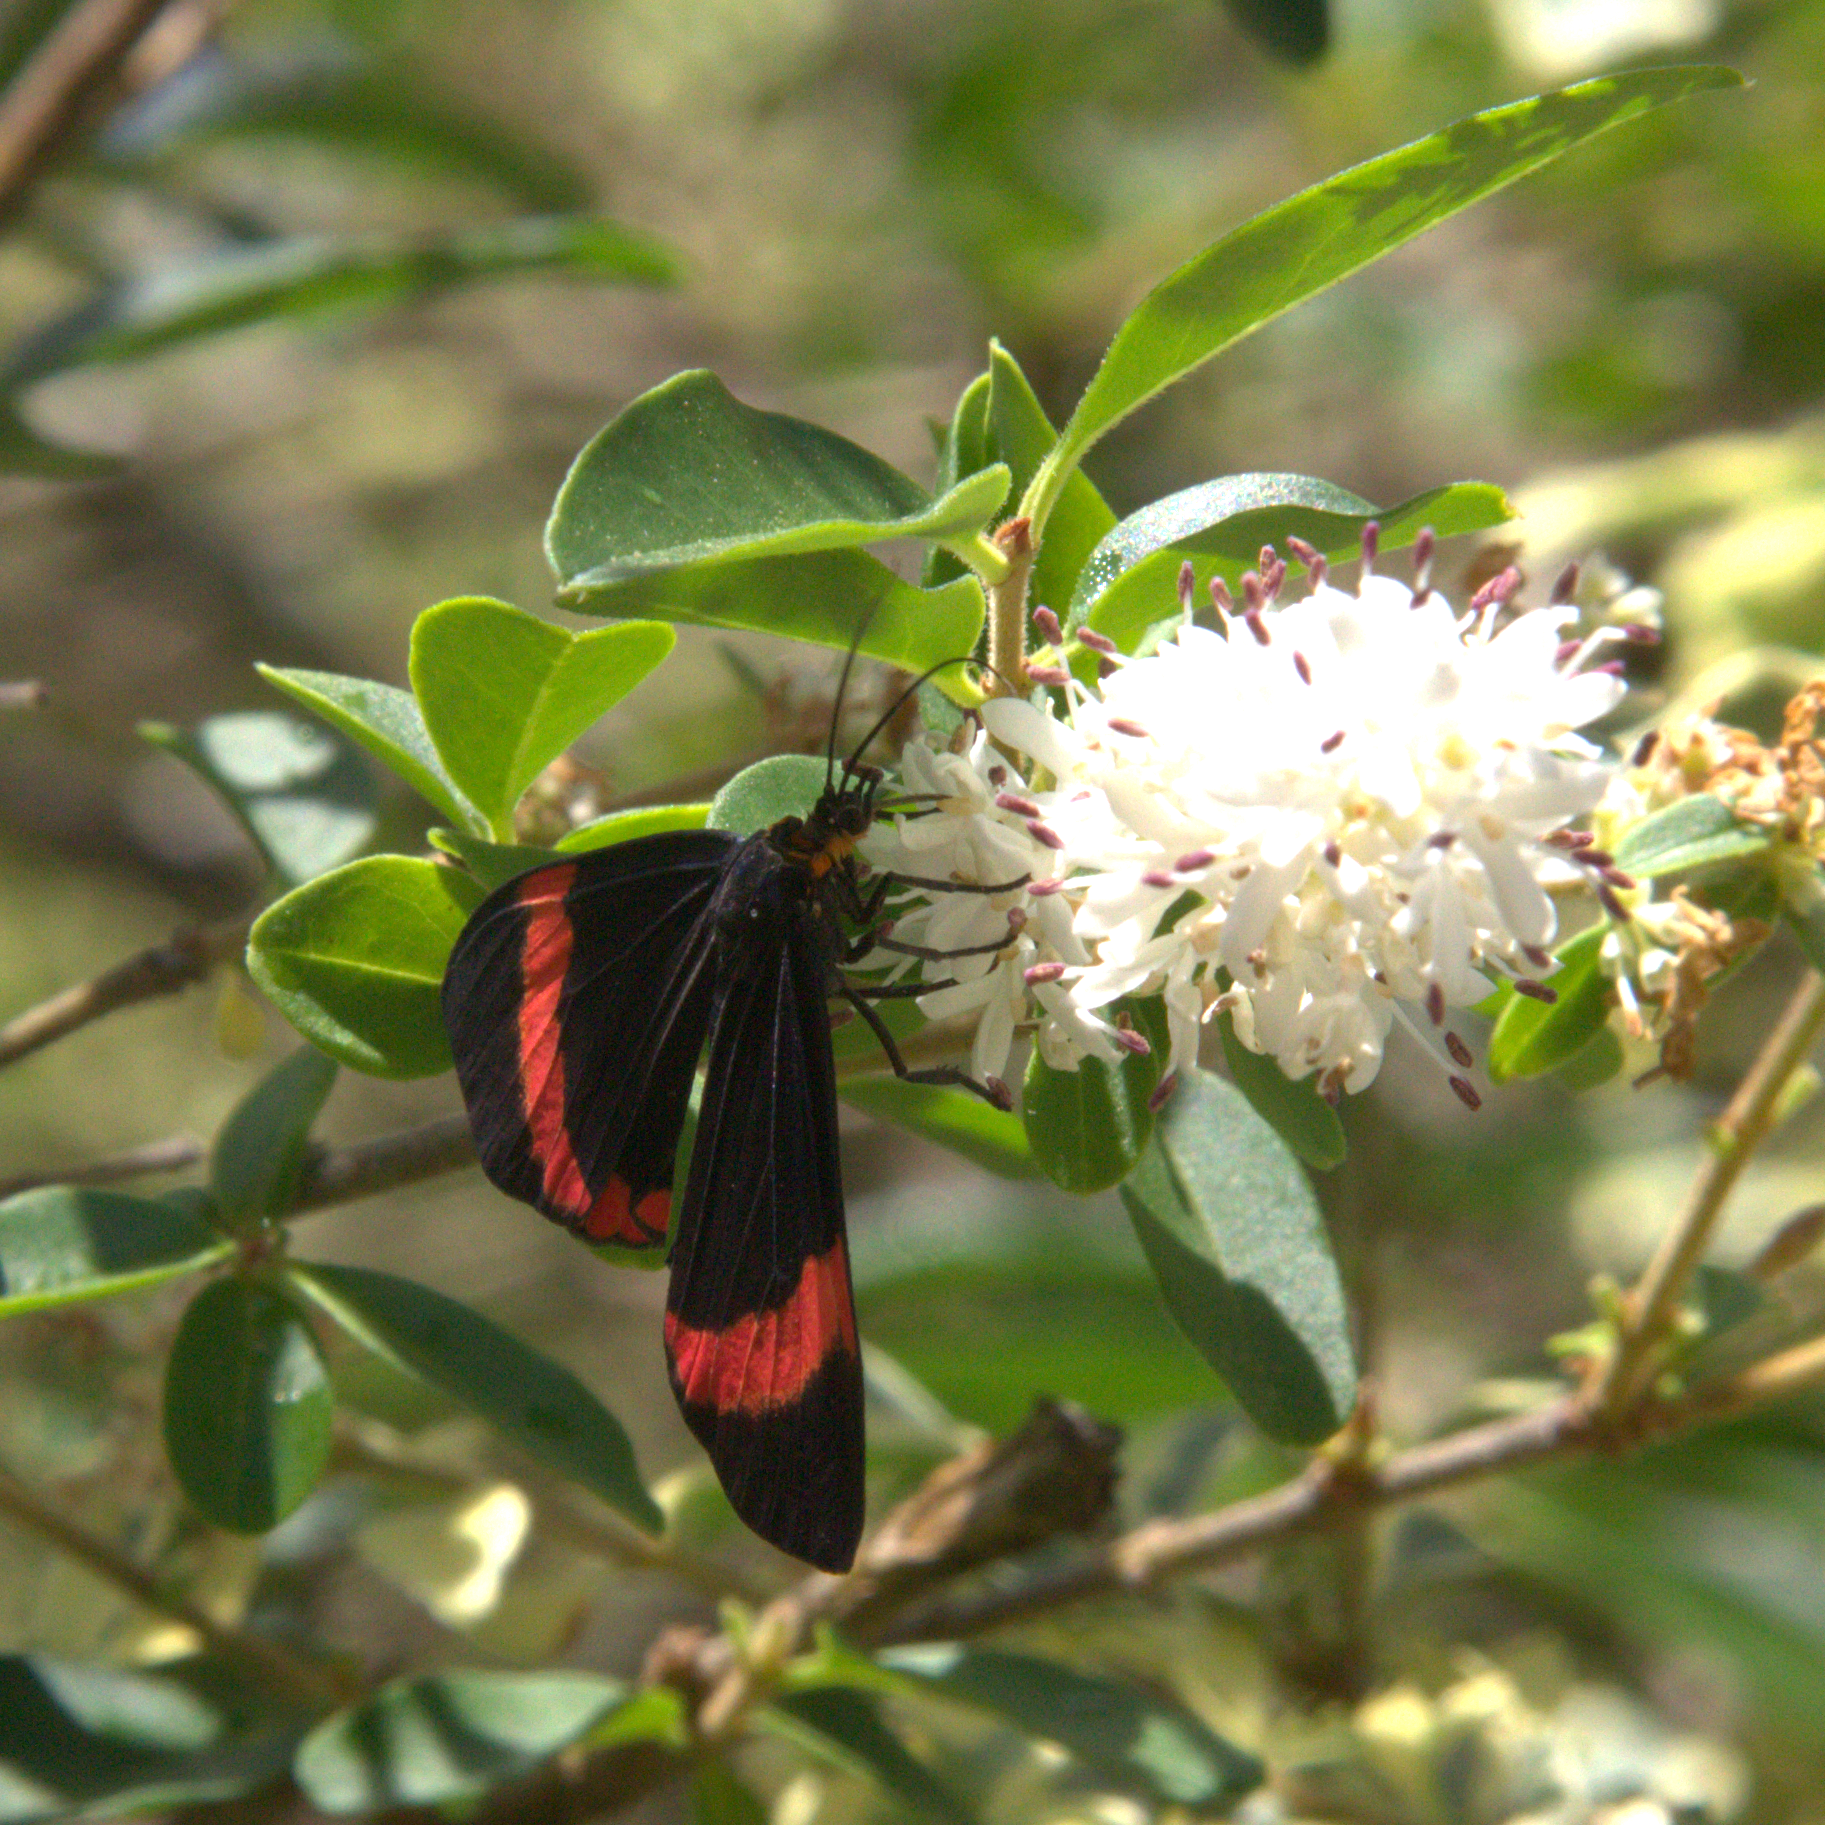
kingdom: Animalia
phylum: Arthropoda
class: Insecta
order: Lepidoptera
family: Erebidae
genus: Coreura
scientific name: Coreura fida
